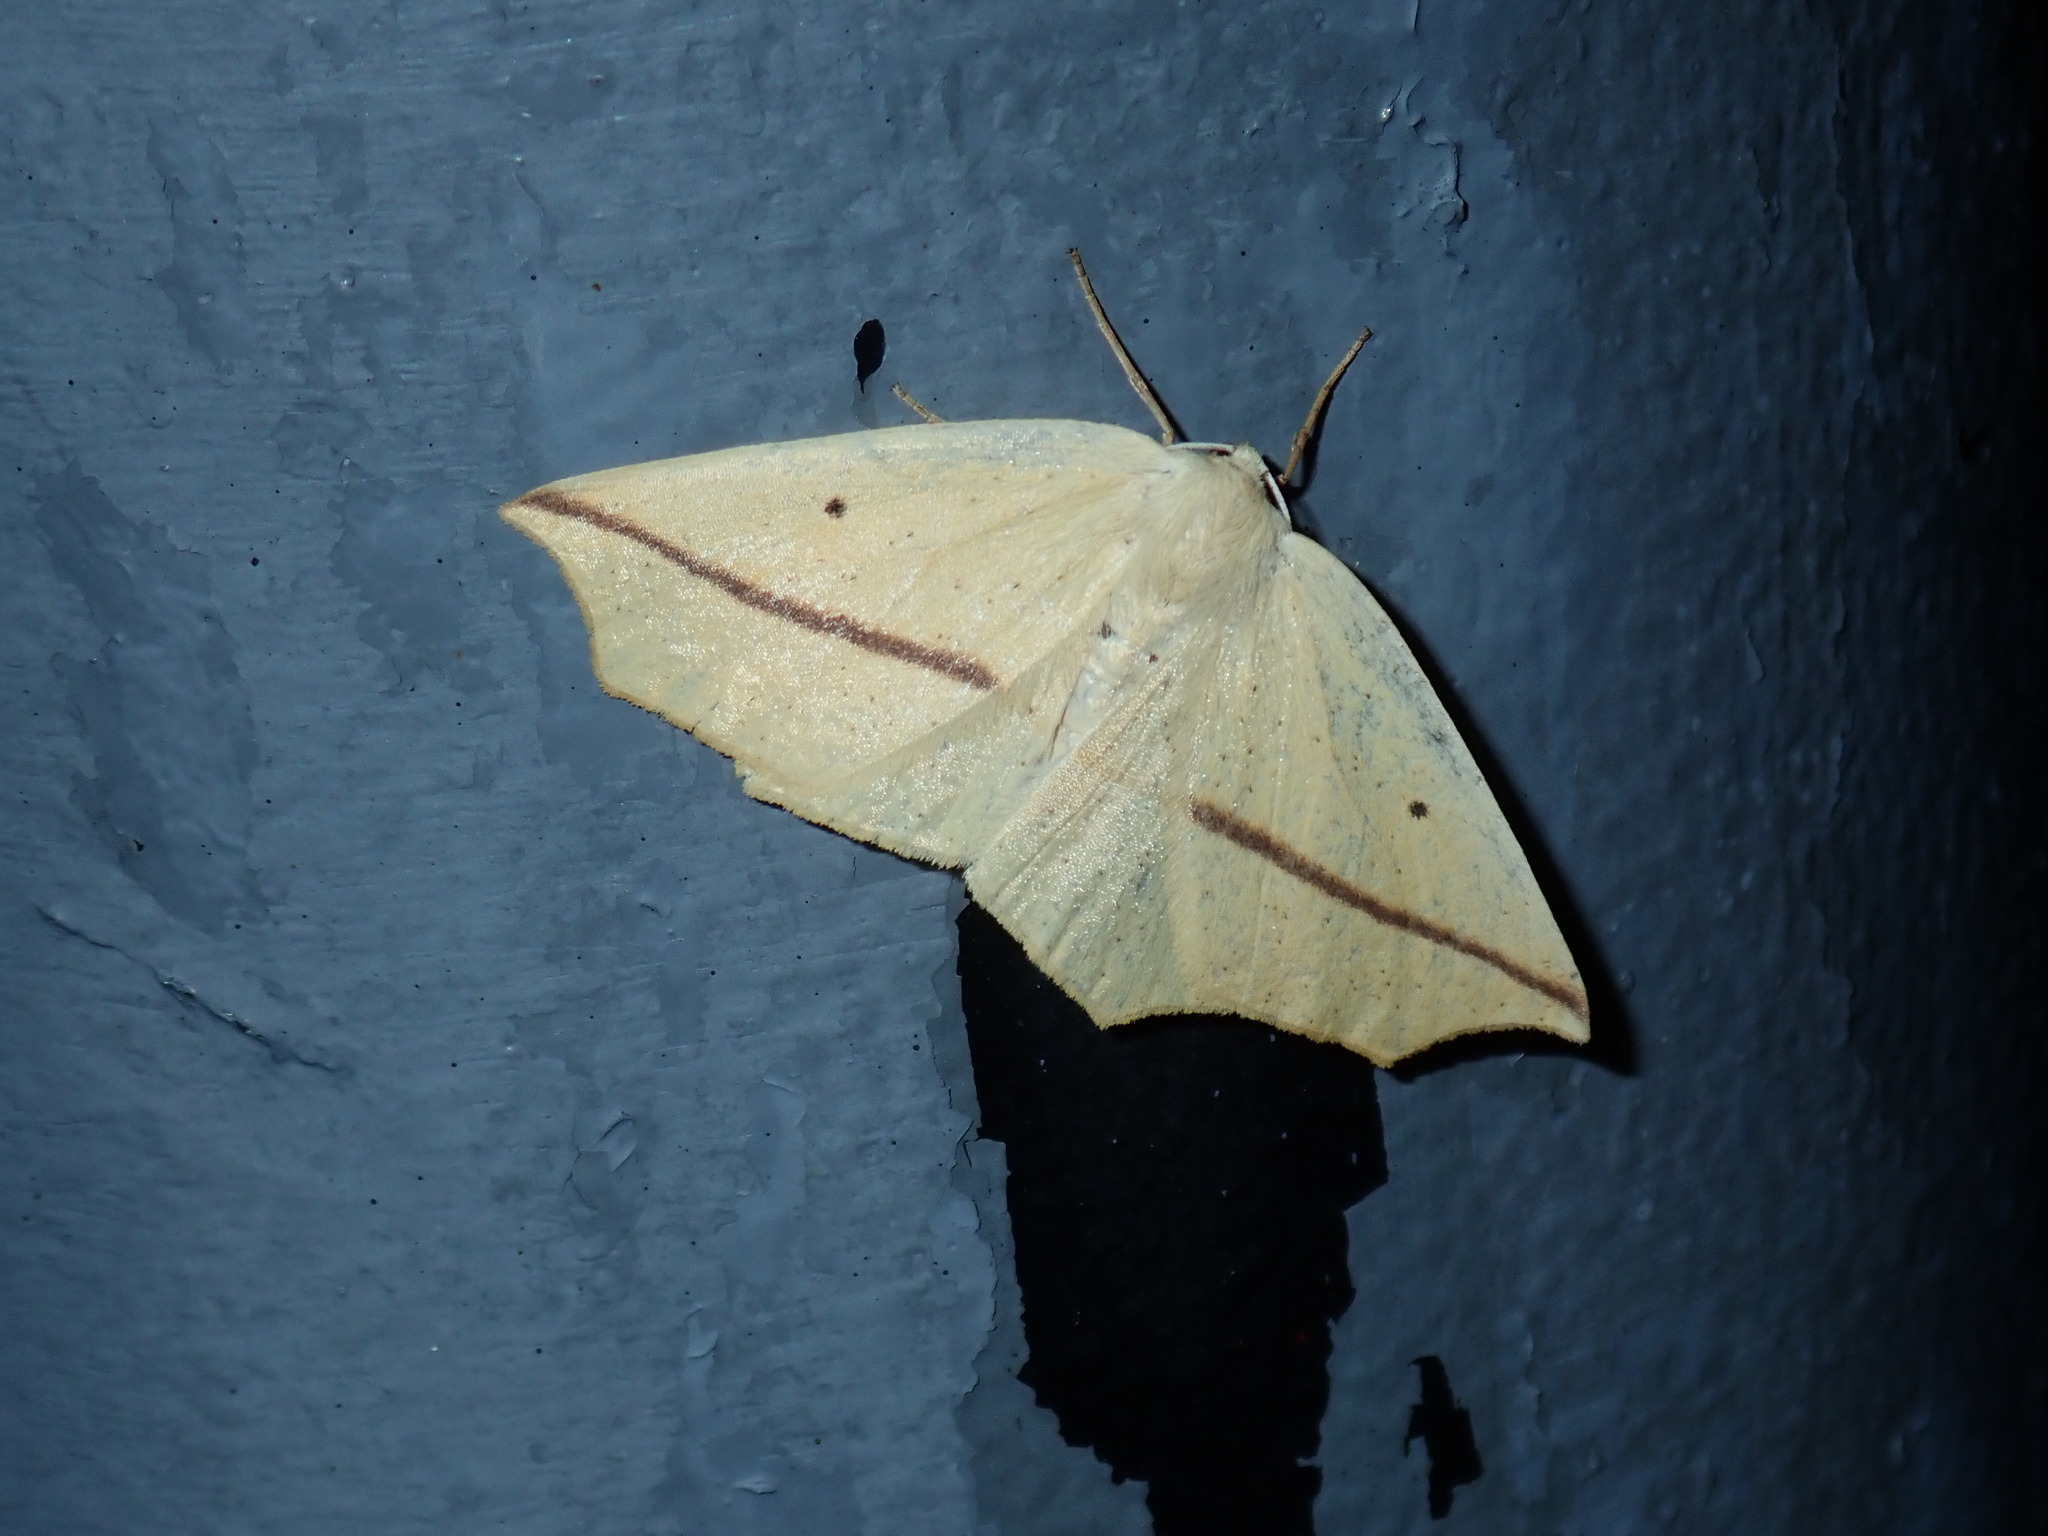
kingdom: Animalia
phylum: Arthropoda
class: Insecta
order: Lepidoptera
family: Geometridae
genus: Tetracis
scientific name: Tetracis crocallata
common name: Yellow slant-line
